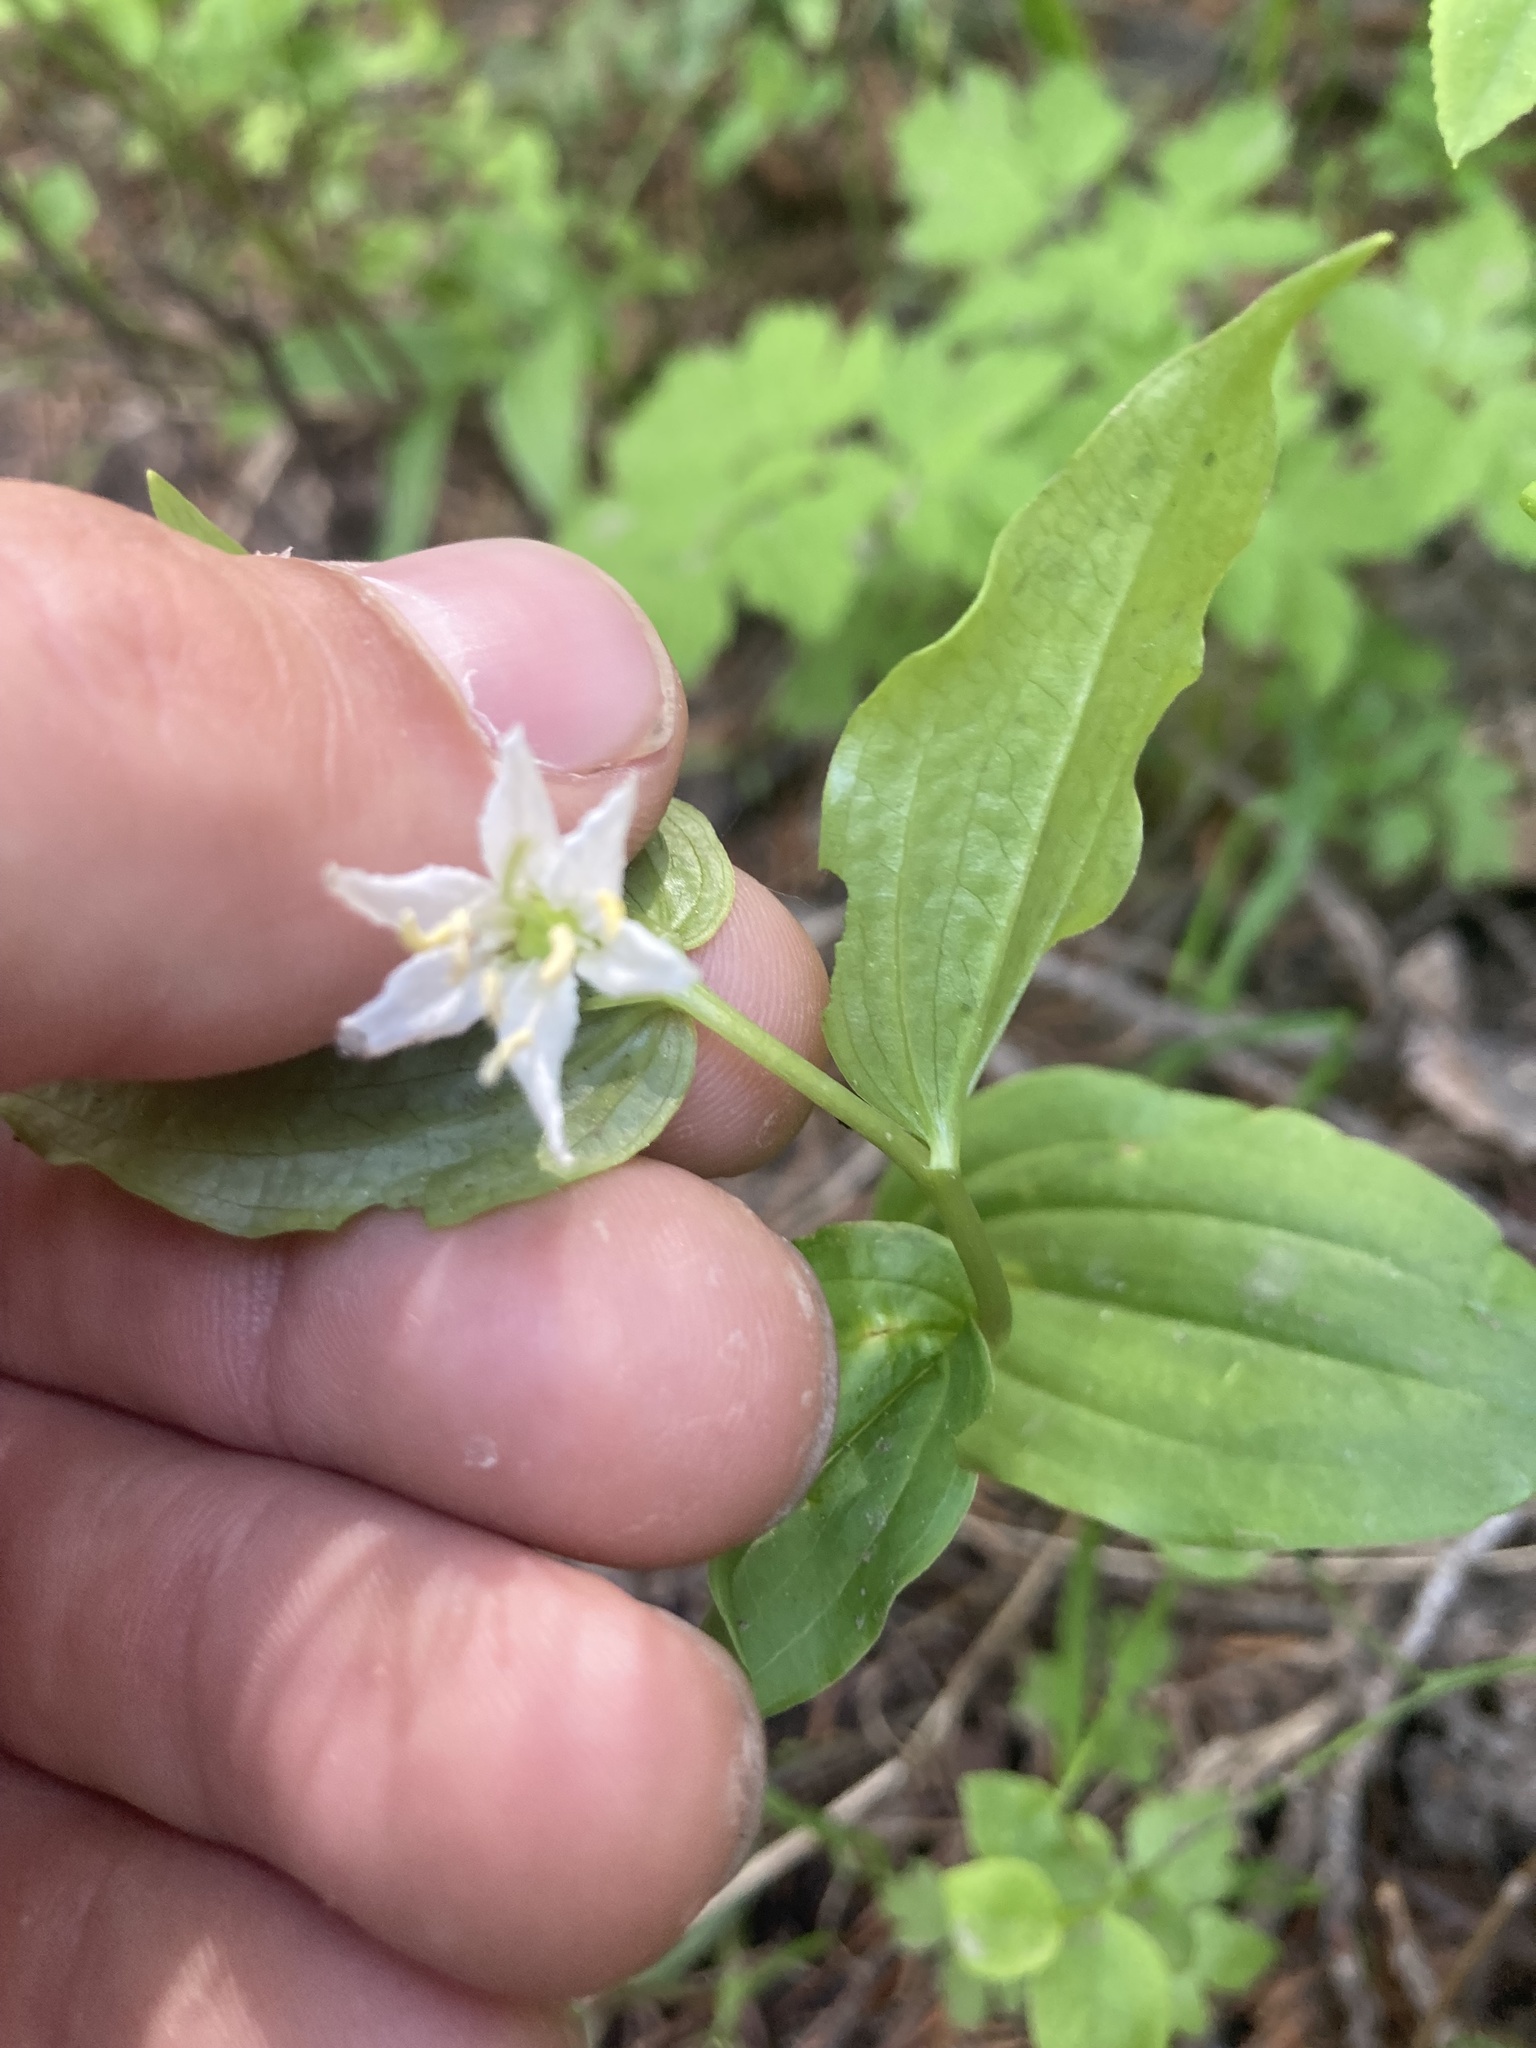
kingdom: Plantae
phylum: Tracheophyta
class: Liliopsida
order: Liliales
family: Liliaceae
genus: Prosartes
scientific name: Prosartes trachycarpa
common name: Rough-fruit fairy-bells
